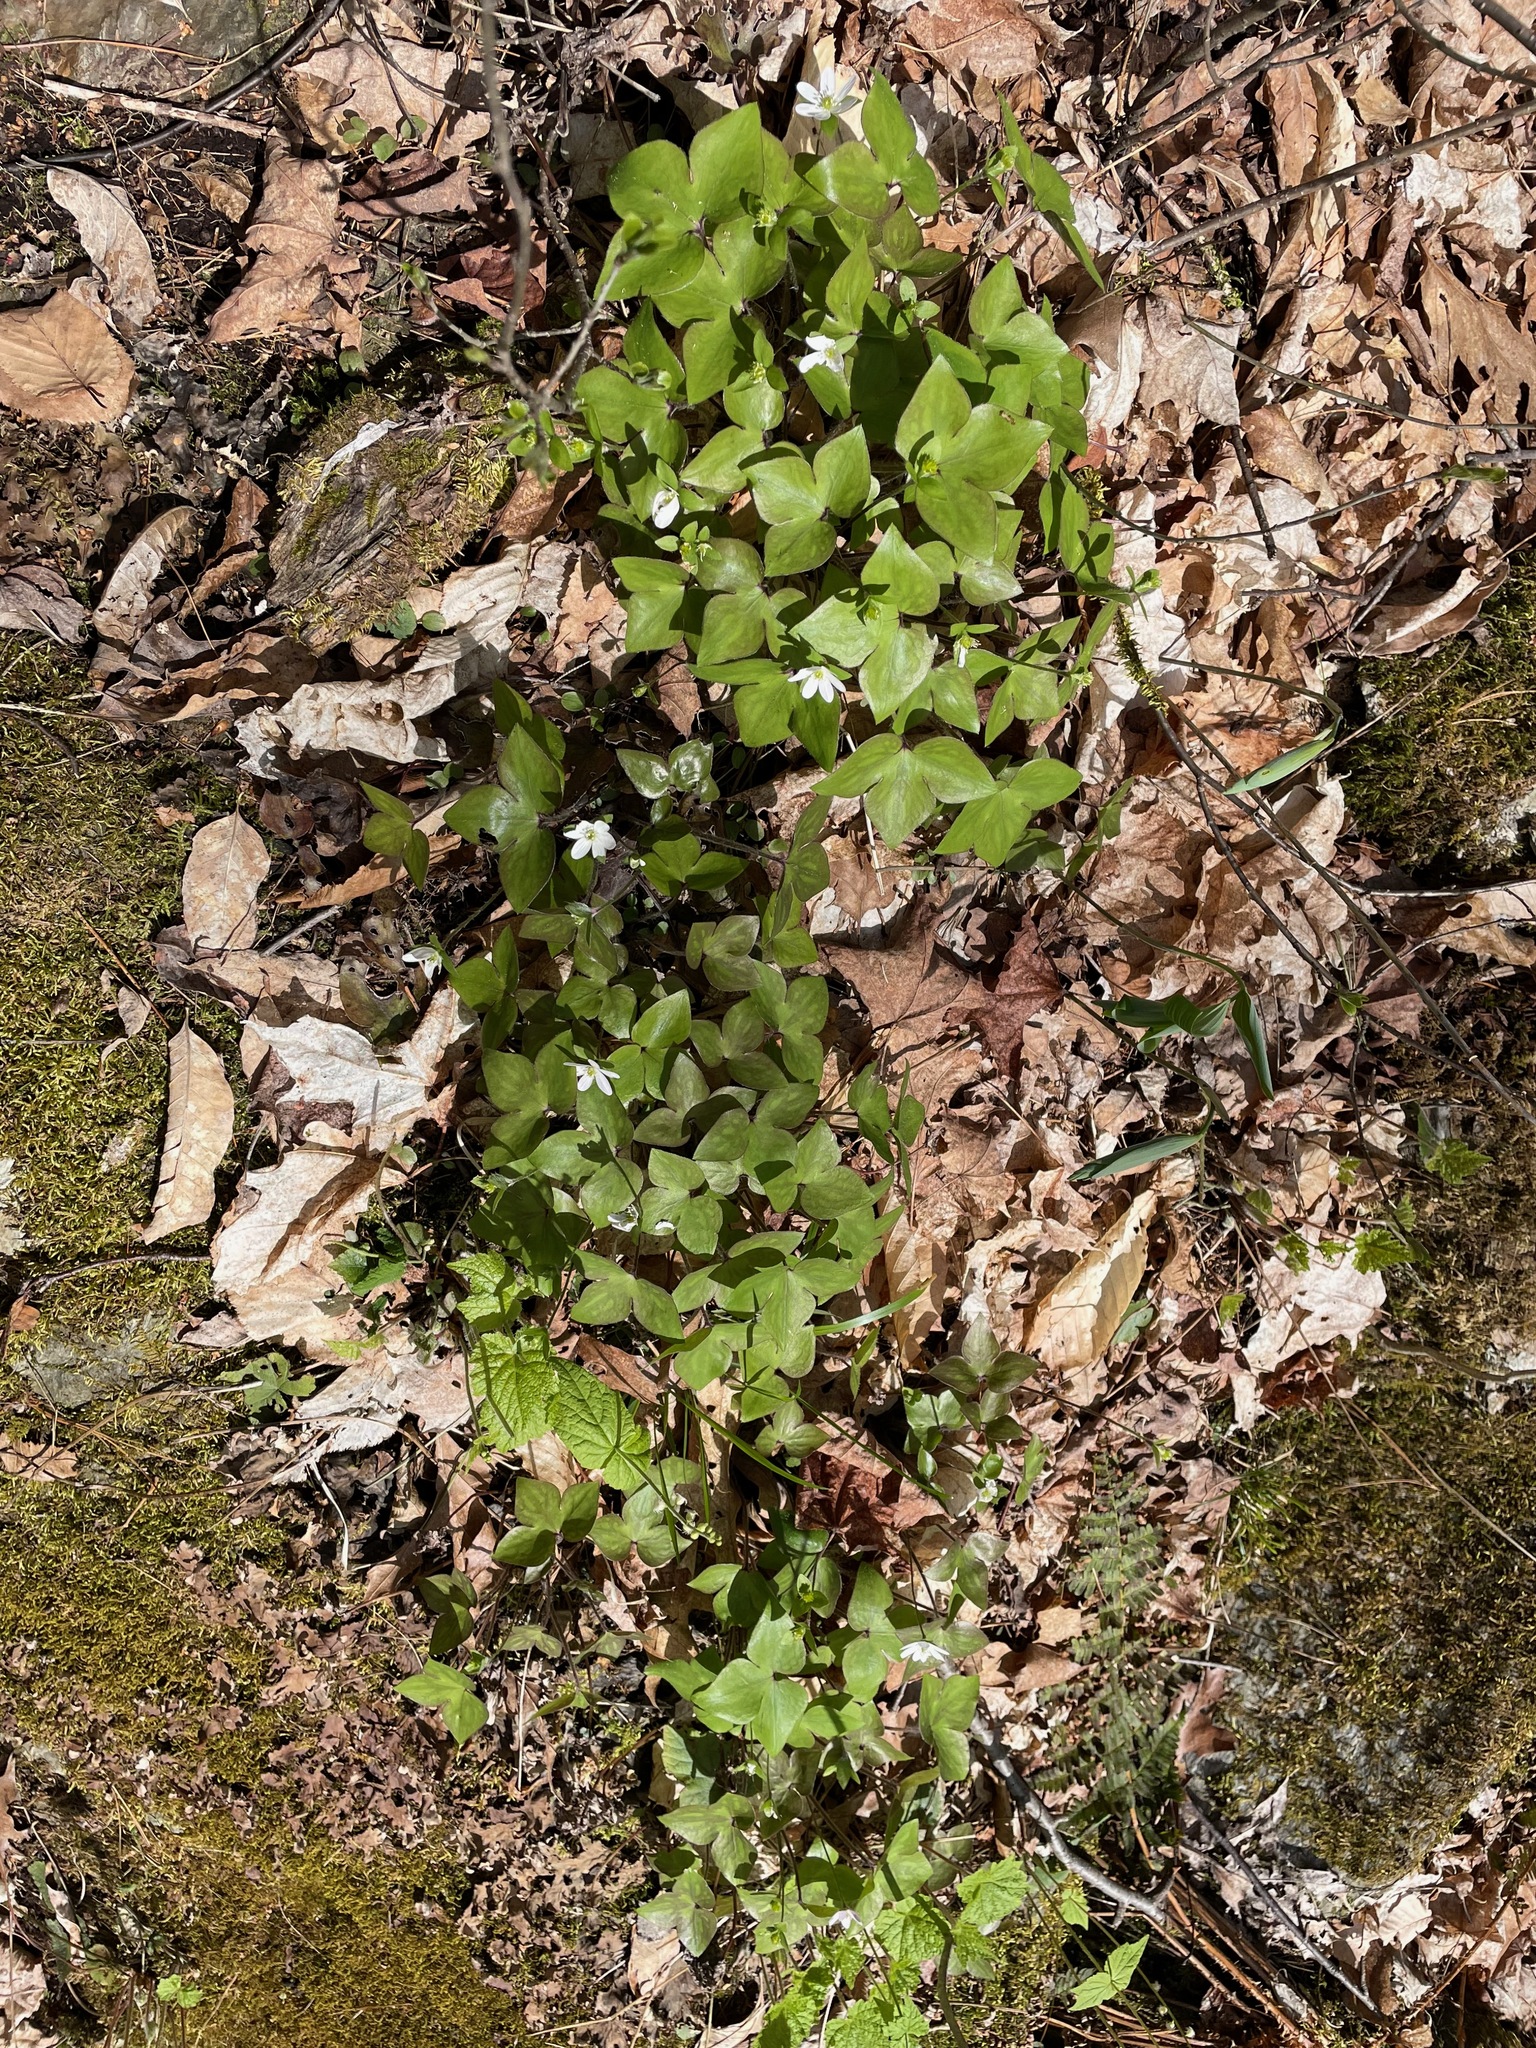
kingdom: Plantae
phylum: Tracheophyta
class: Magnoliopsida
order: Ranunculales
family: Ranunculaceae
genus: Hepatica
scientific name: Hepatica acutiloba
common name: Sharp-lobed hepatica
